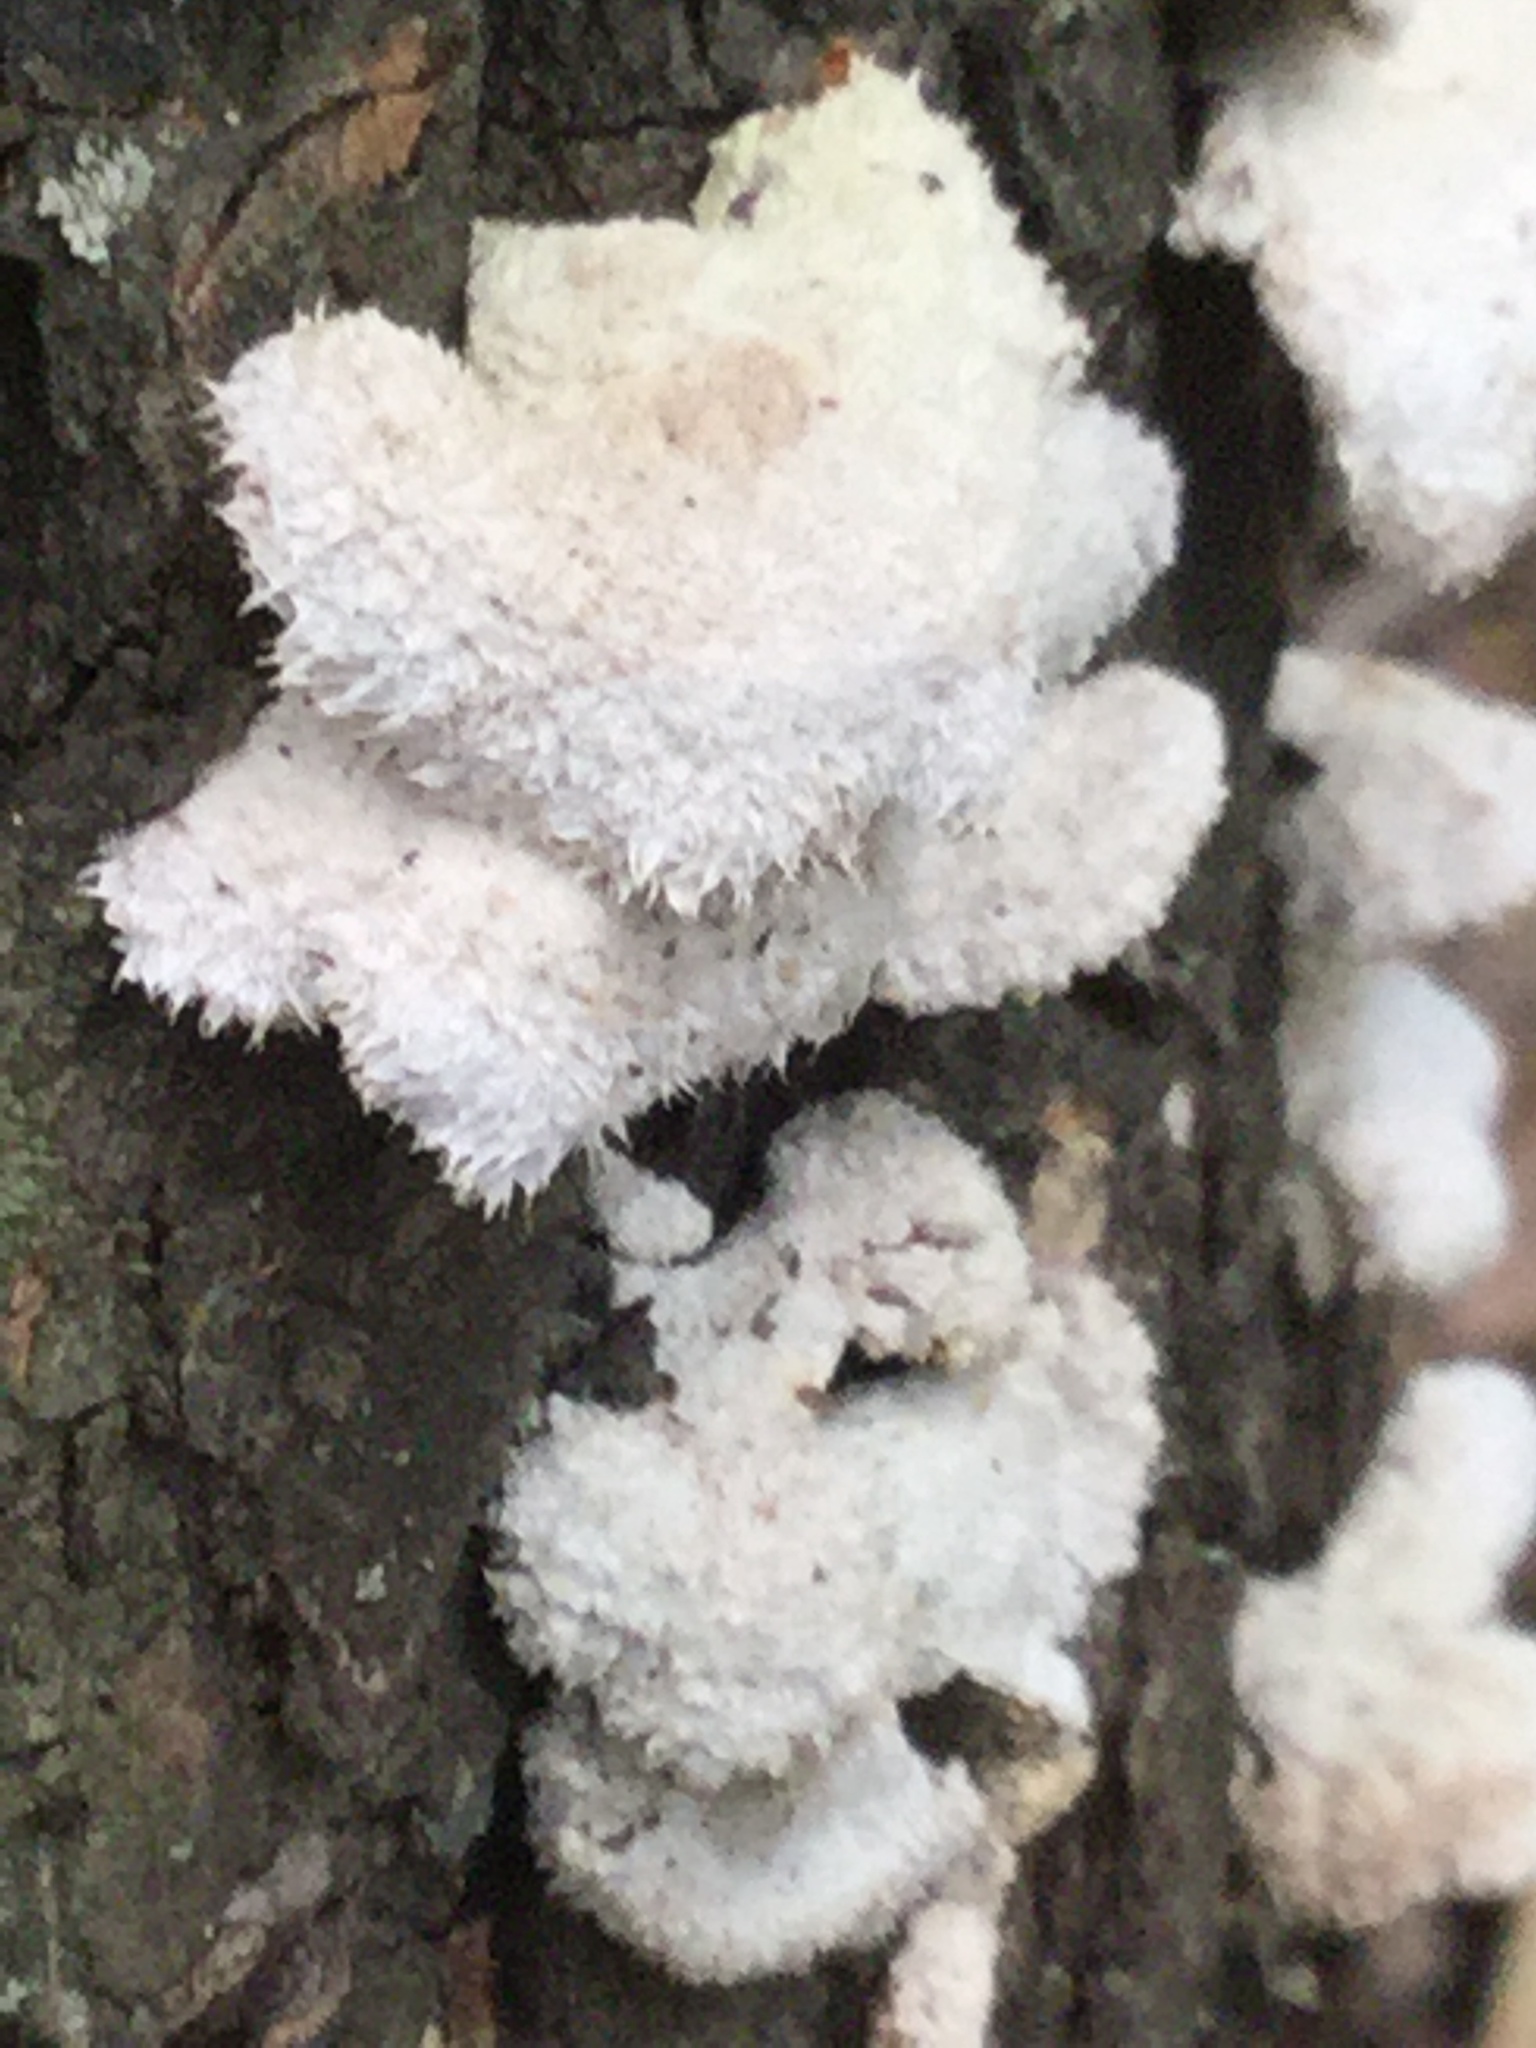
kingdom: Fungi
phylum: Basidiomycota
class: Agaricomycetes
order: Agaricales
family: Schizophyllaceae
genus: Schizophyllum
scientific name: Schizophyllum commune
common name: Common porecrust
